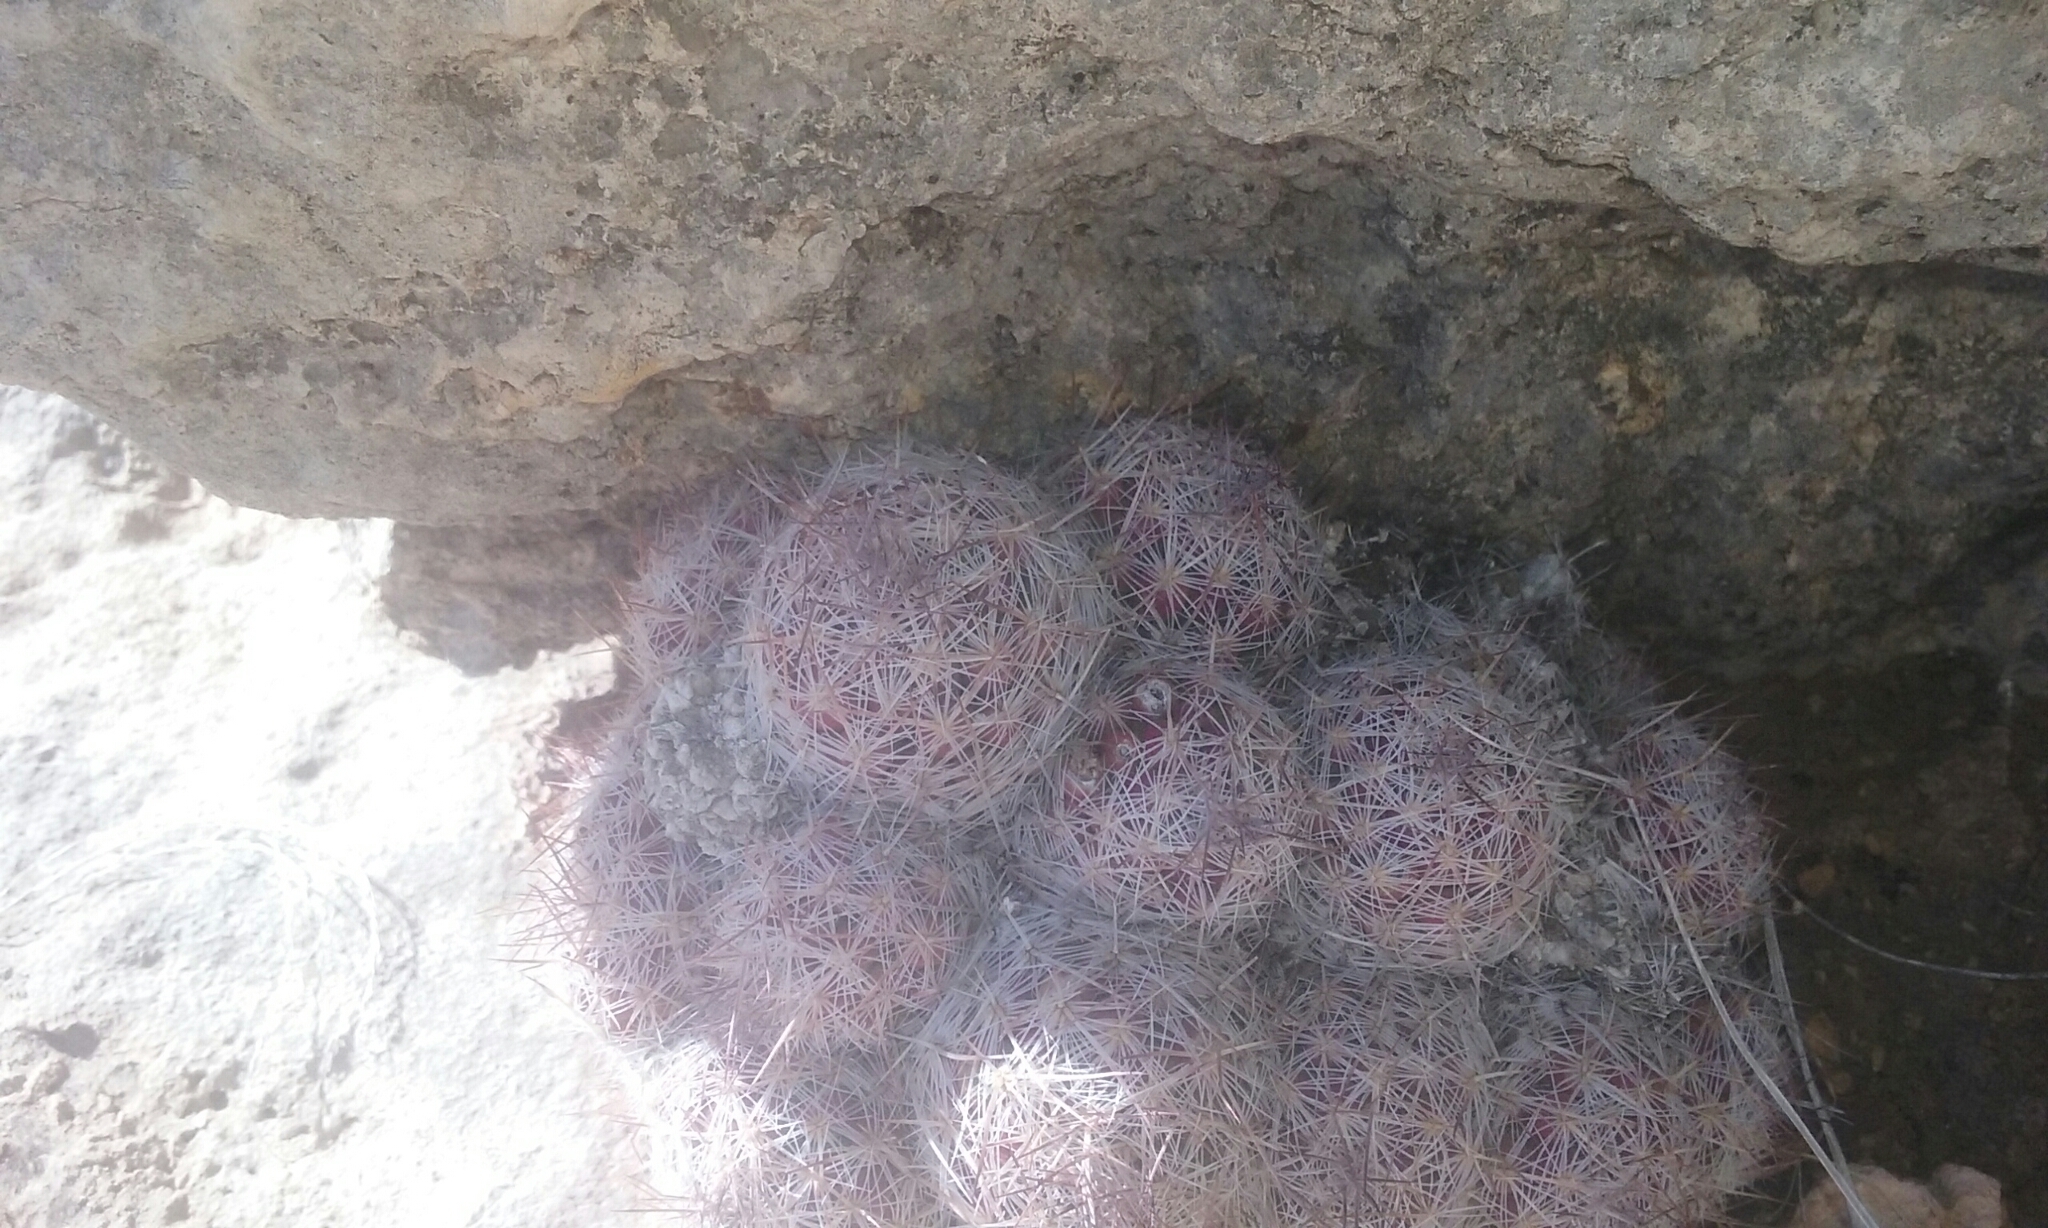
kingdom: Plantae
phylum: Tracheophyta
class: Magnoliopsida
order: Caryophyllales
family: Cactaceae
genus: Pelecyphora
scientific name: Pelecyphora tuberculosa
